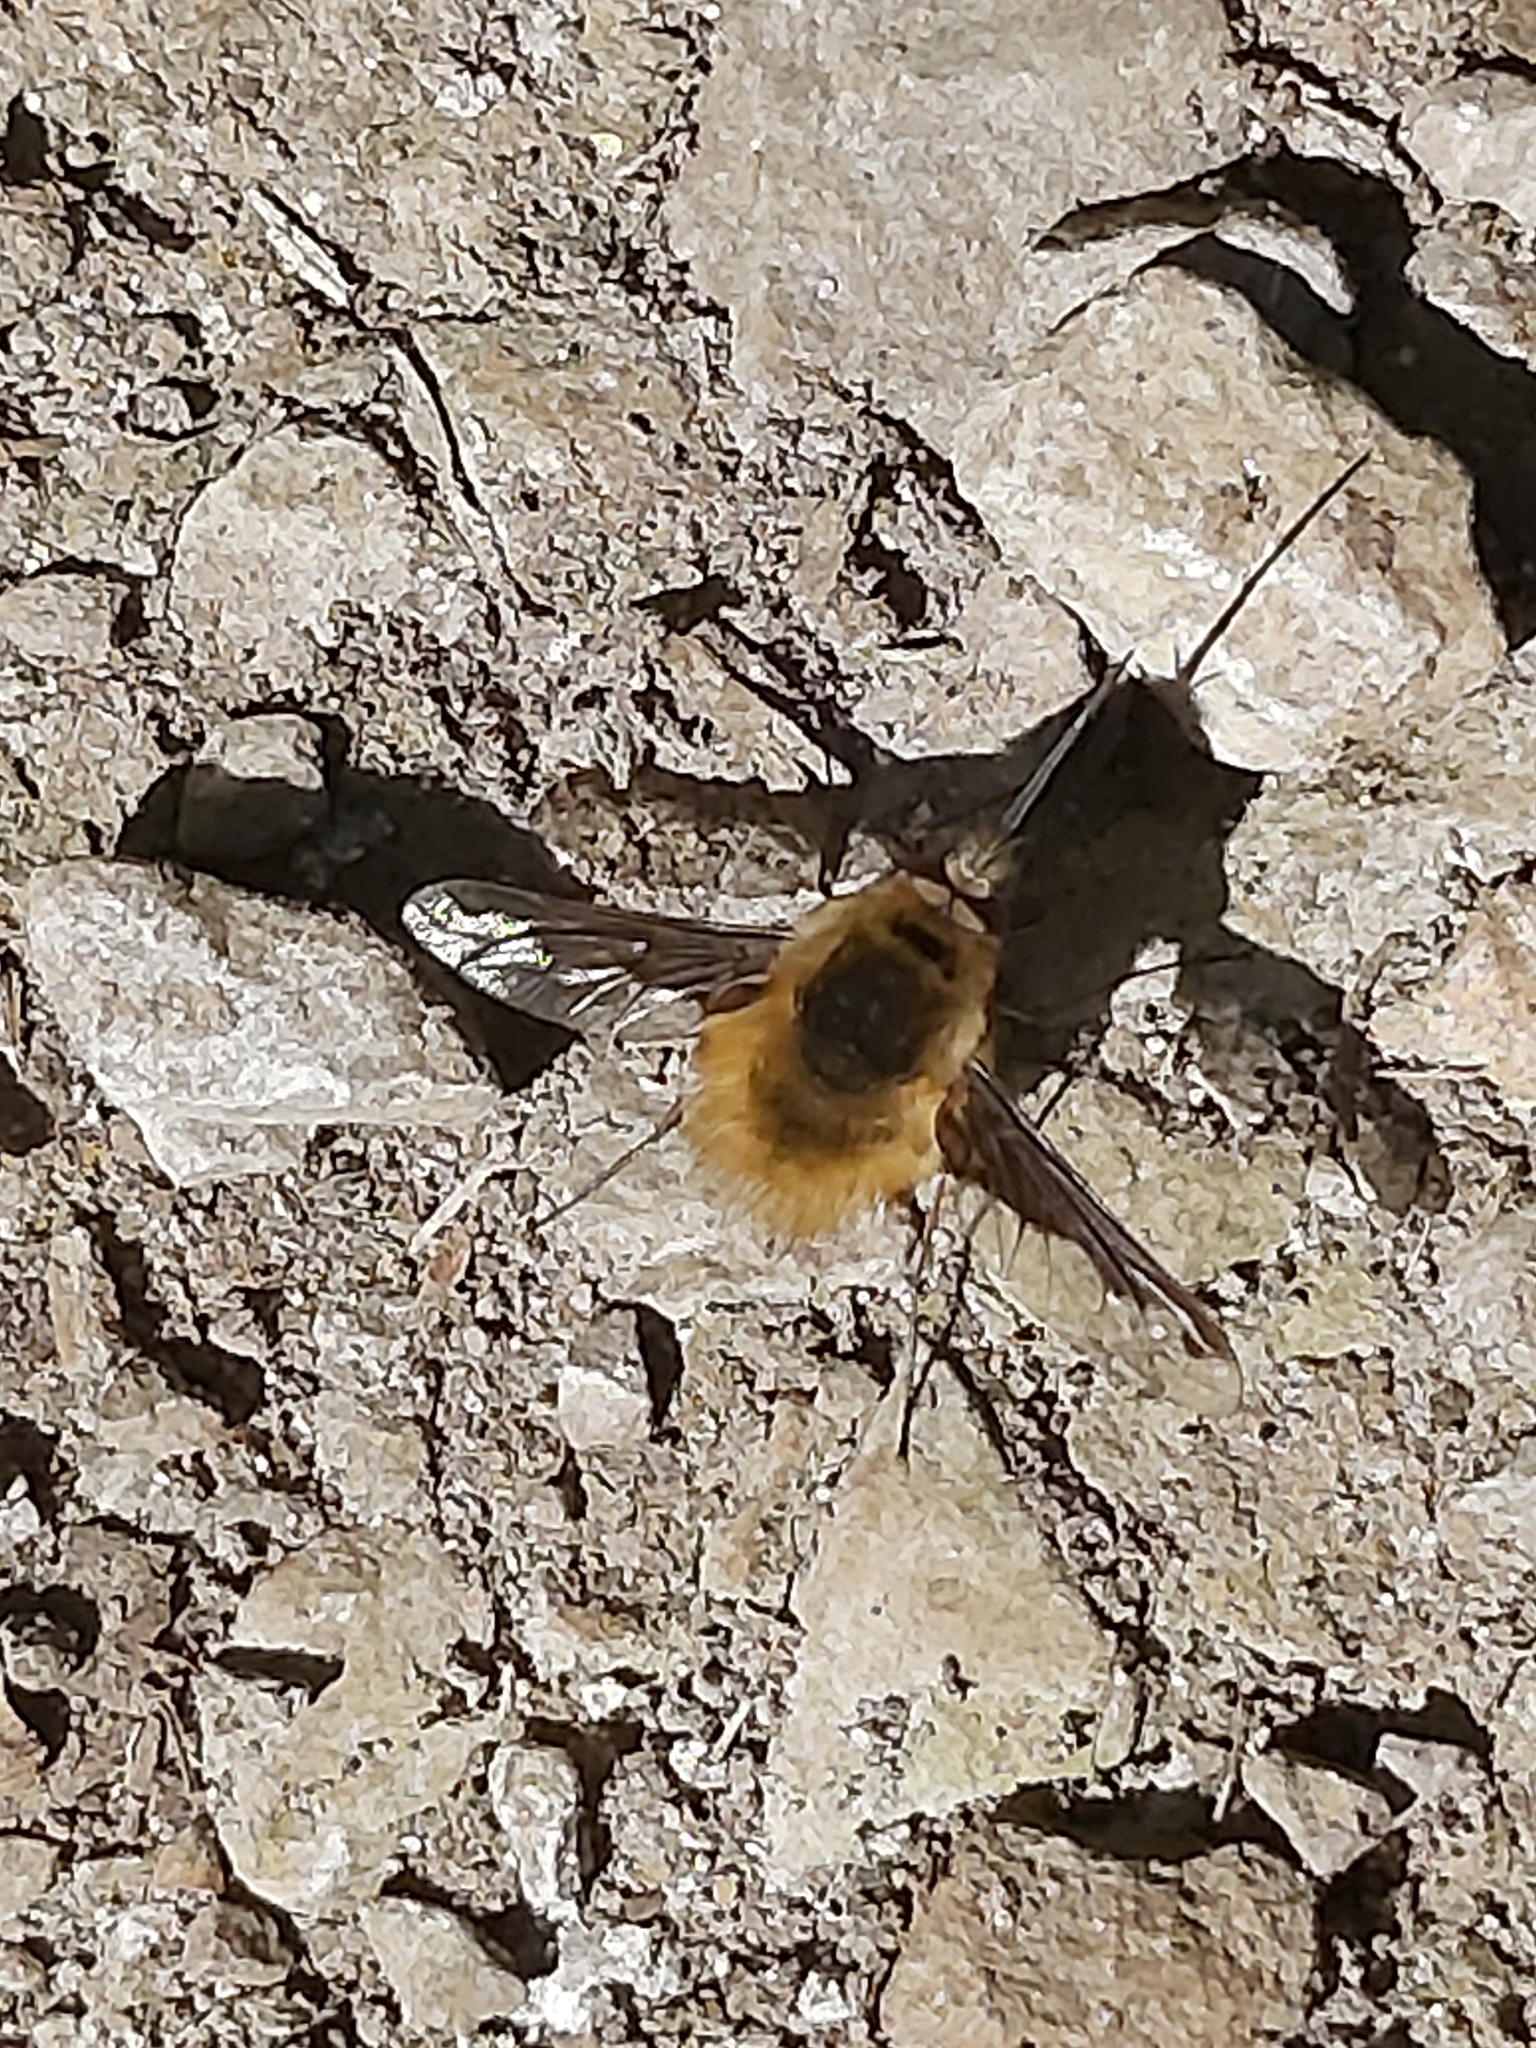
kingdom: Animalia
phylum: Arthropoda
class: Insecta
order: Diptera
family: Bombyliidae
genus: Bombylius
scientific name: Bombylius major
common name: Bee fly
